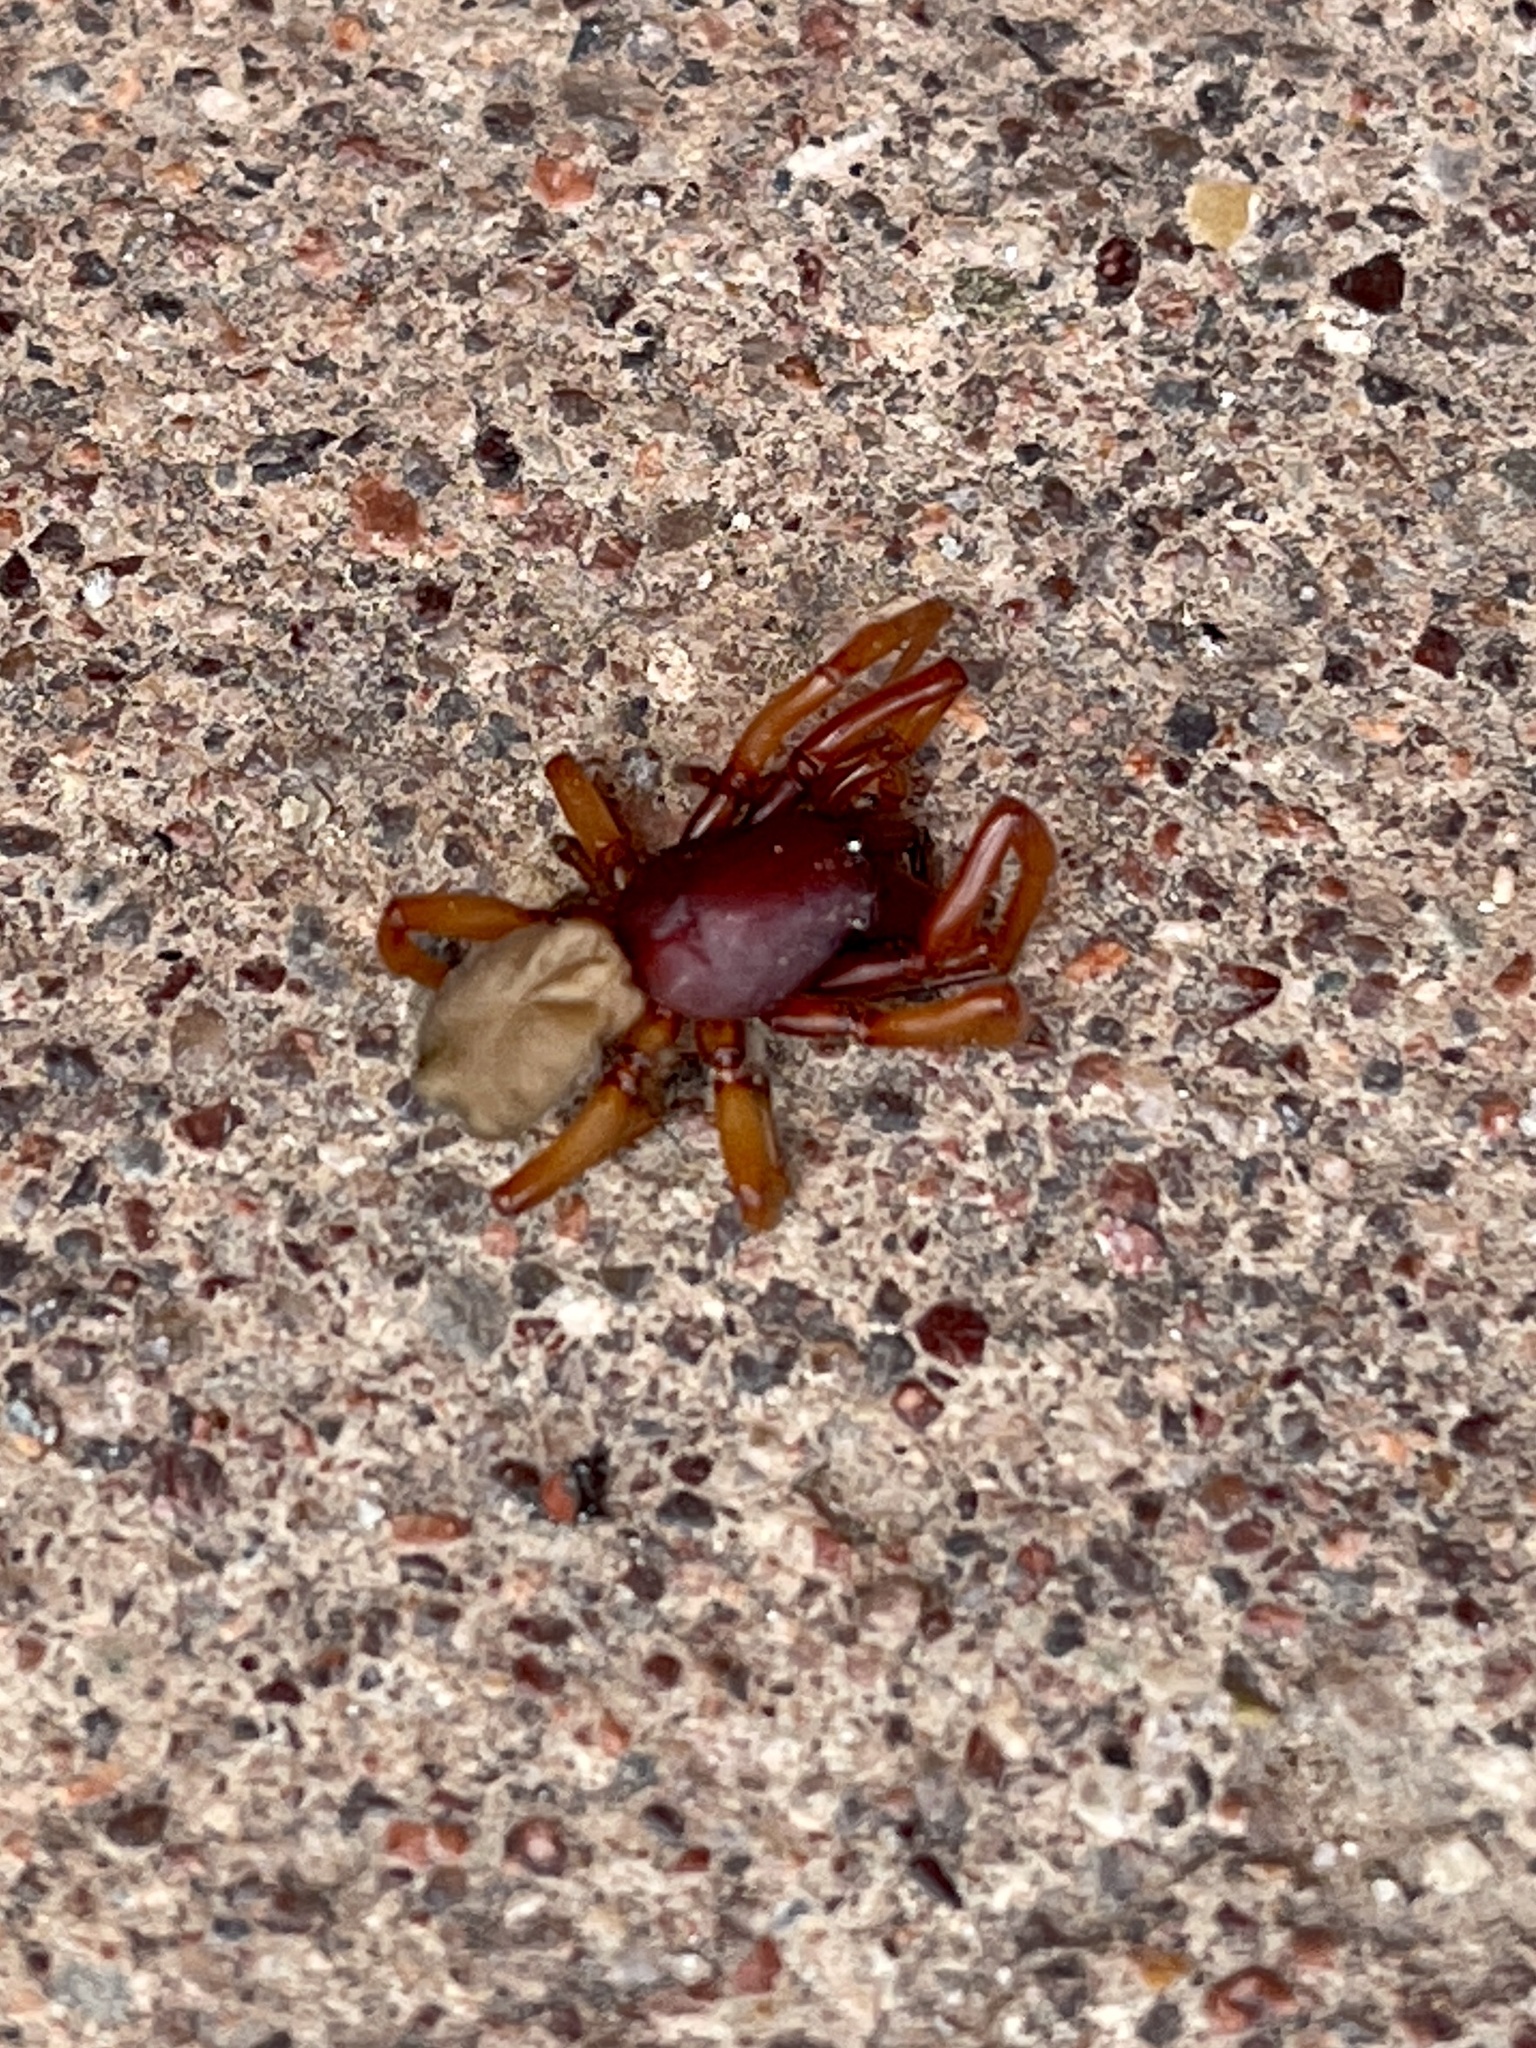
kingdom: Animalia
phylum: Arthropoda
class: Arachnida
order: Araneae
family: Dysderidae
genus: Dysdera
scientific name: Dysdera crocata
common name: Woodlouse spider
